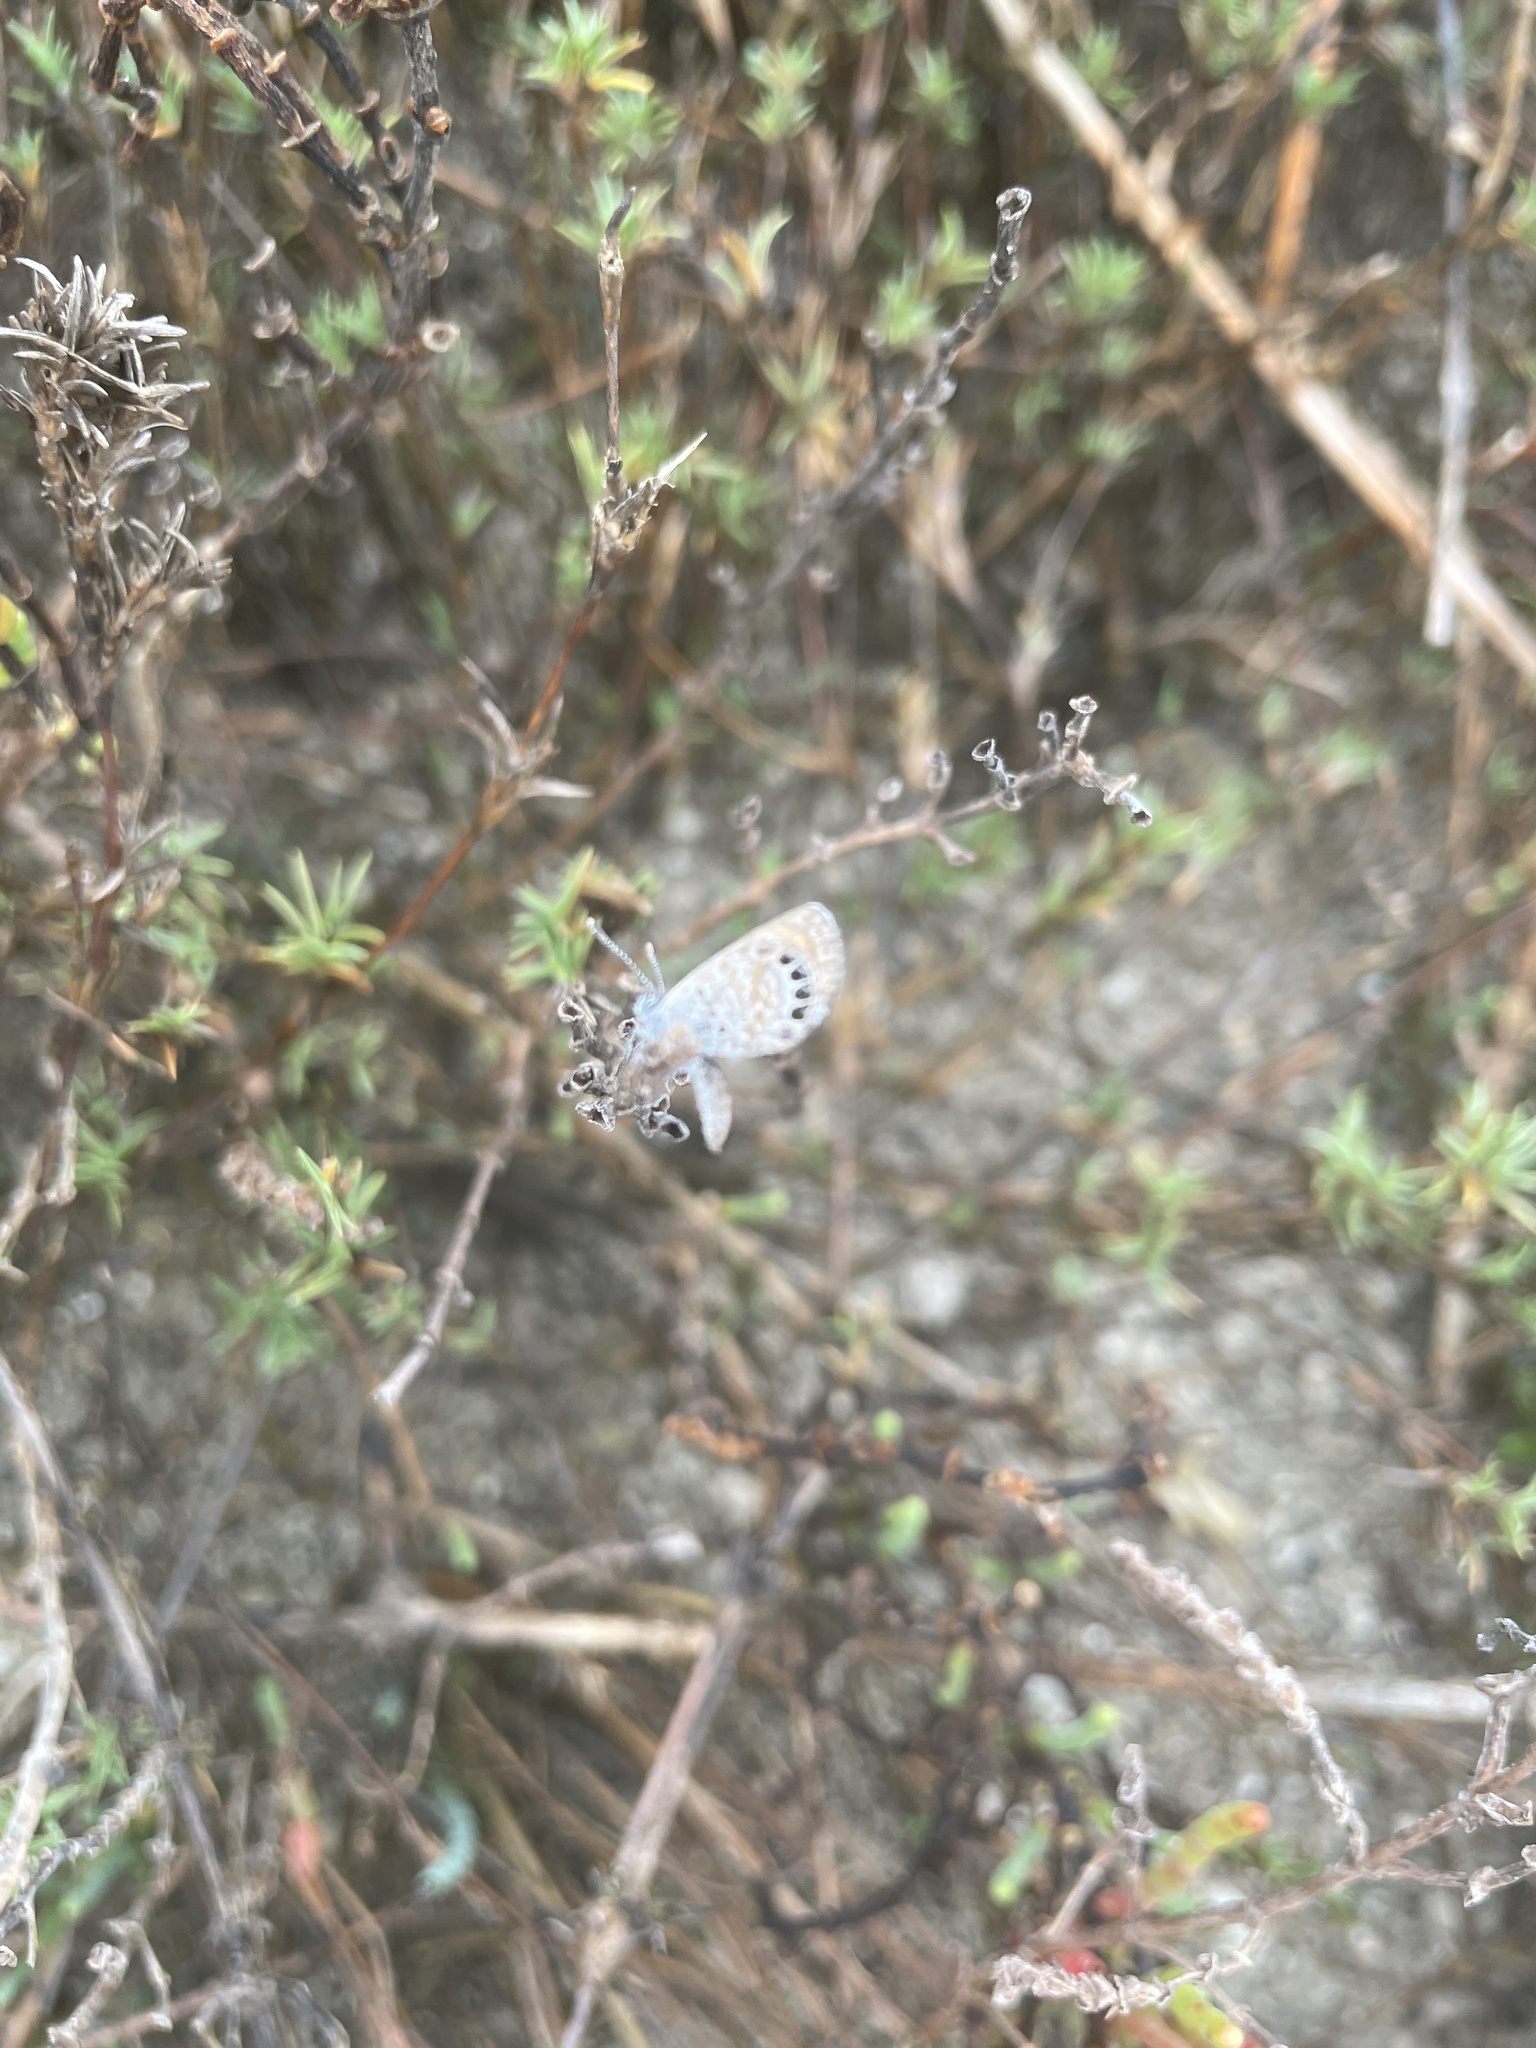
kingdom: Animalia
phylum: Arthropoda
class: Insecta
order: Lepidoptera
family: Lycaenidae
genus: Brephidium
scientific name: Brephidium exilis
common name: Pygmy blue
